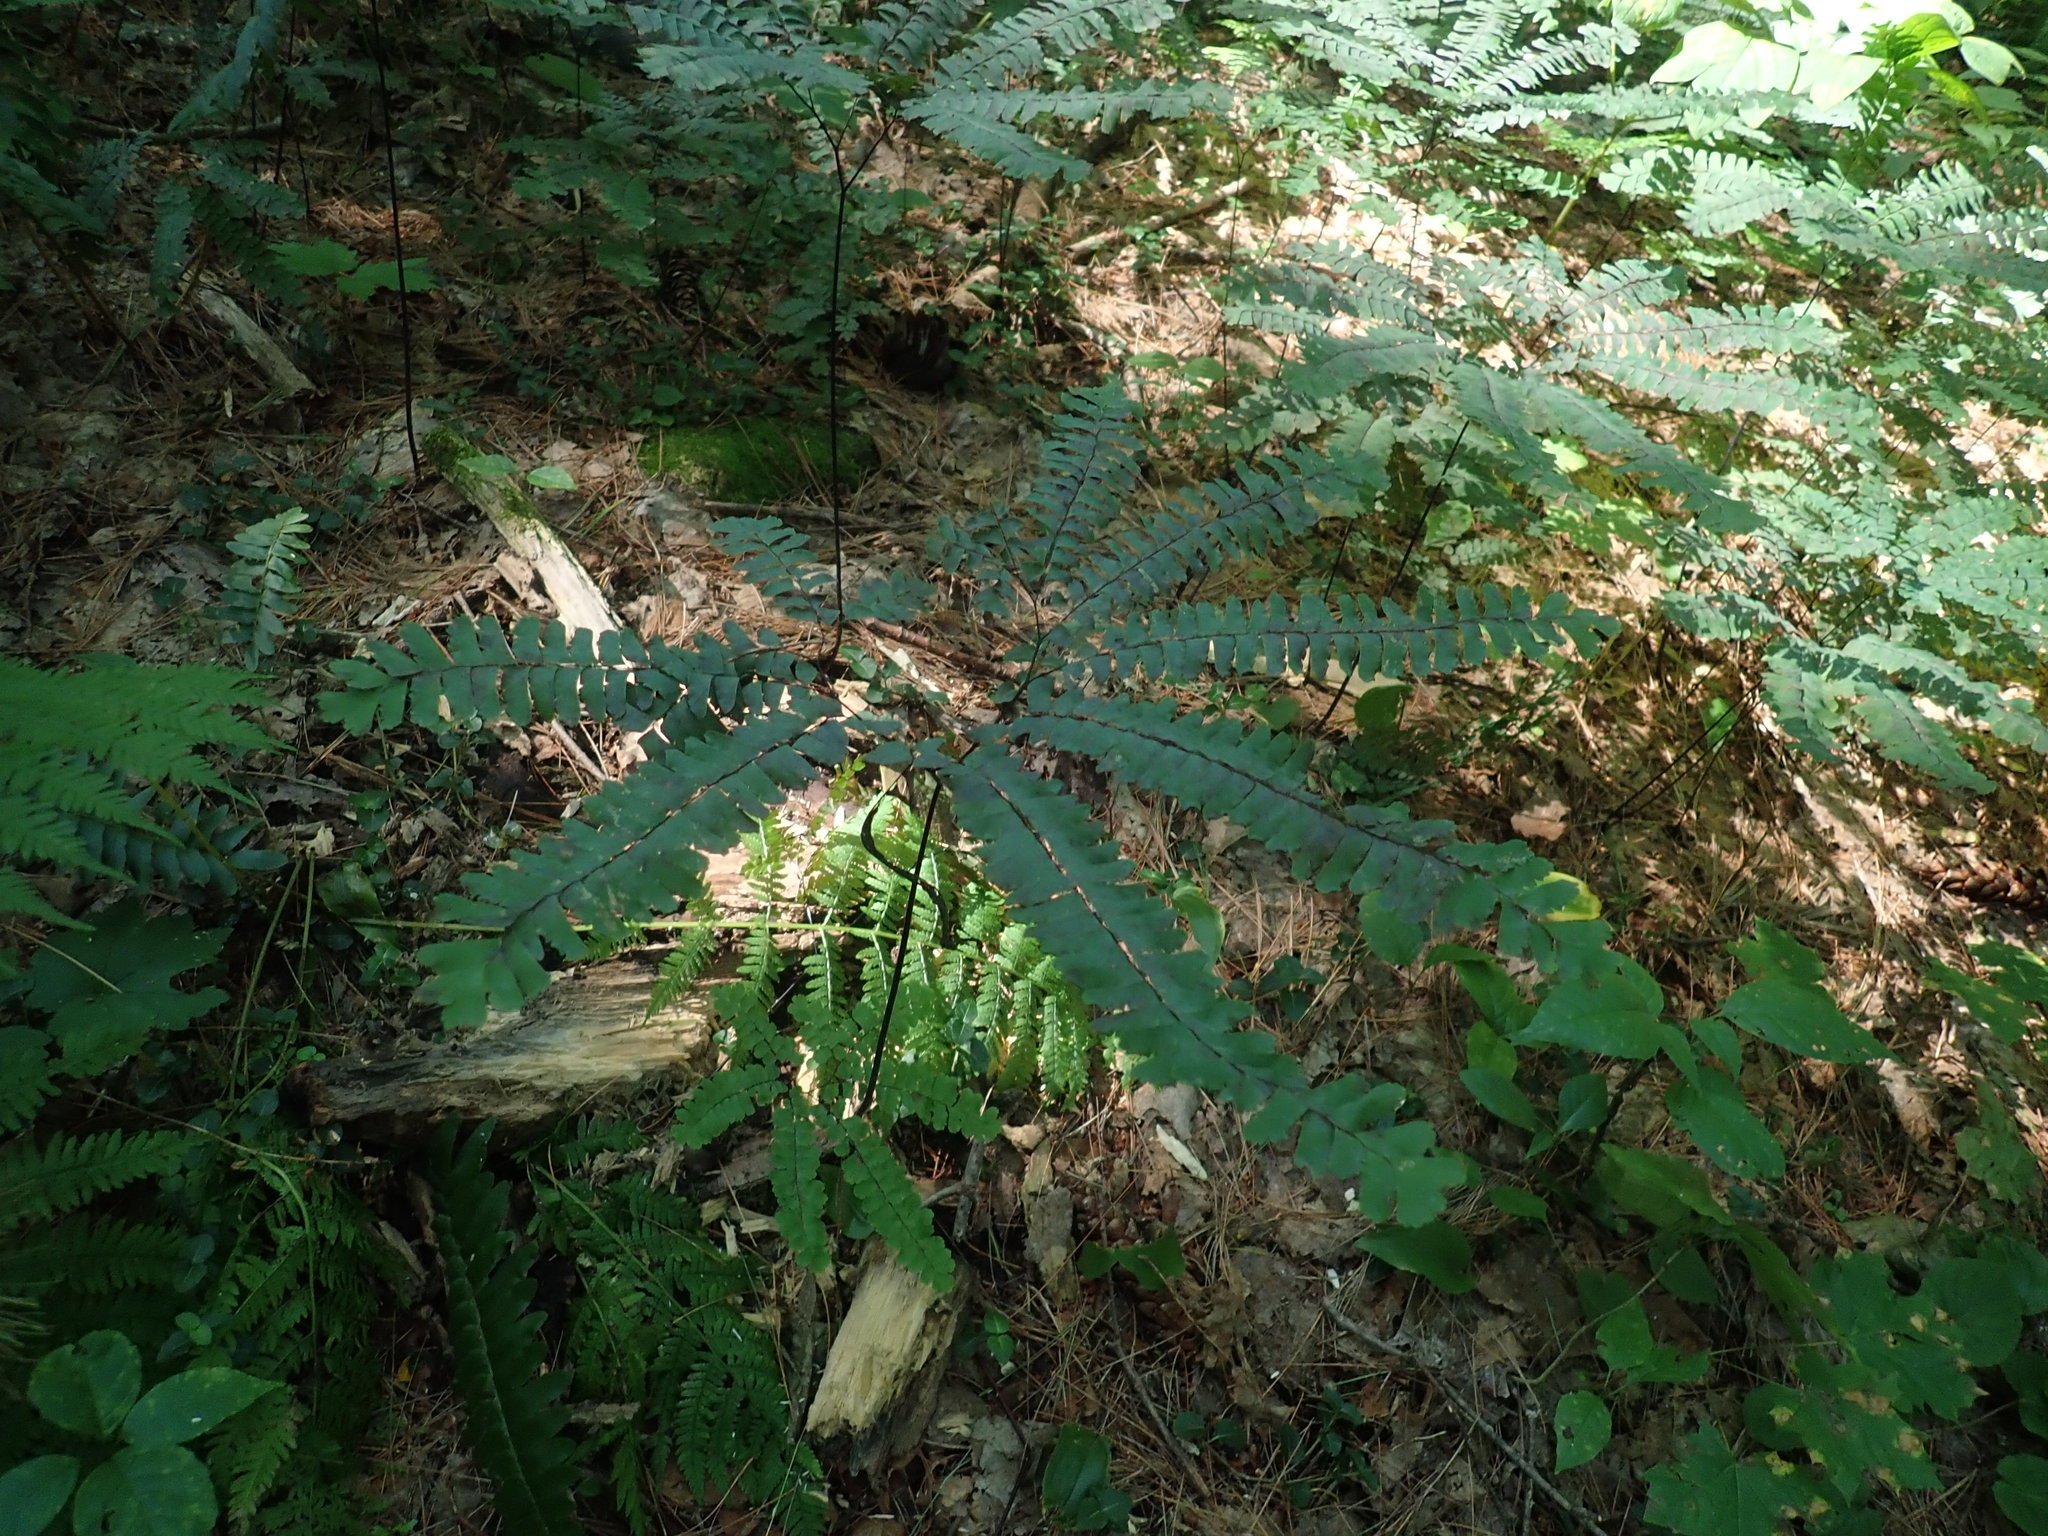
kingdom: Plantae
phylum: Tracheophyta
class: Polypodiopsida
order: Polypodiales
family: Pteridaceae
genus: Adiantum
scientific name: Adiantum pedatum
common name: Five-finger fern
